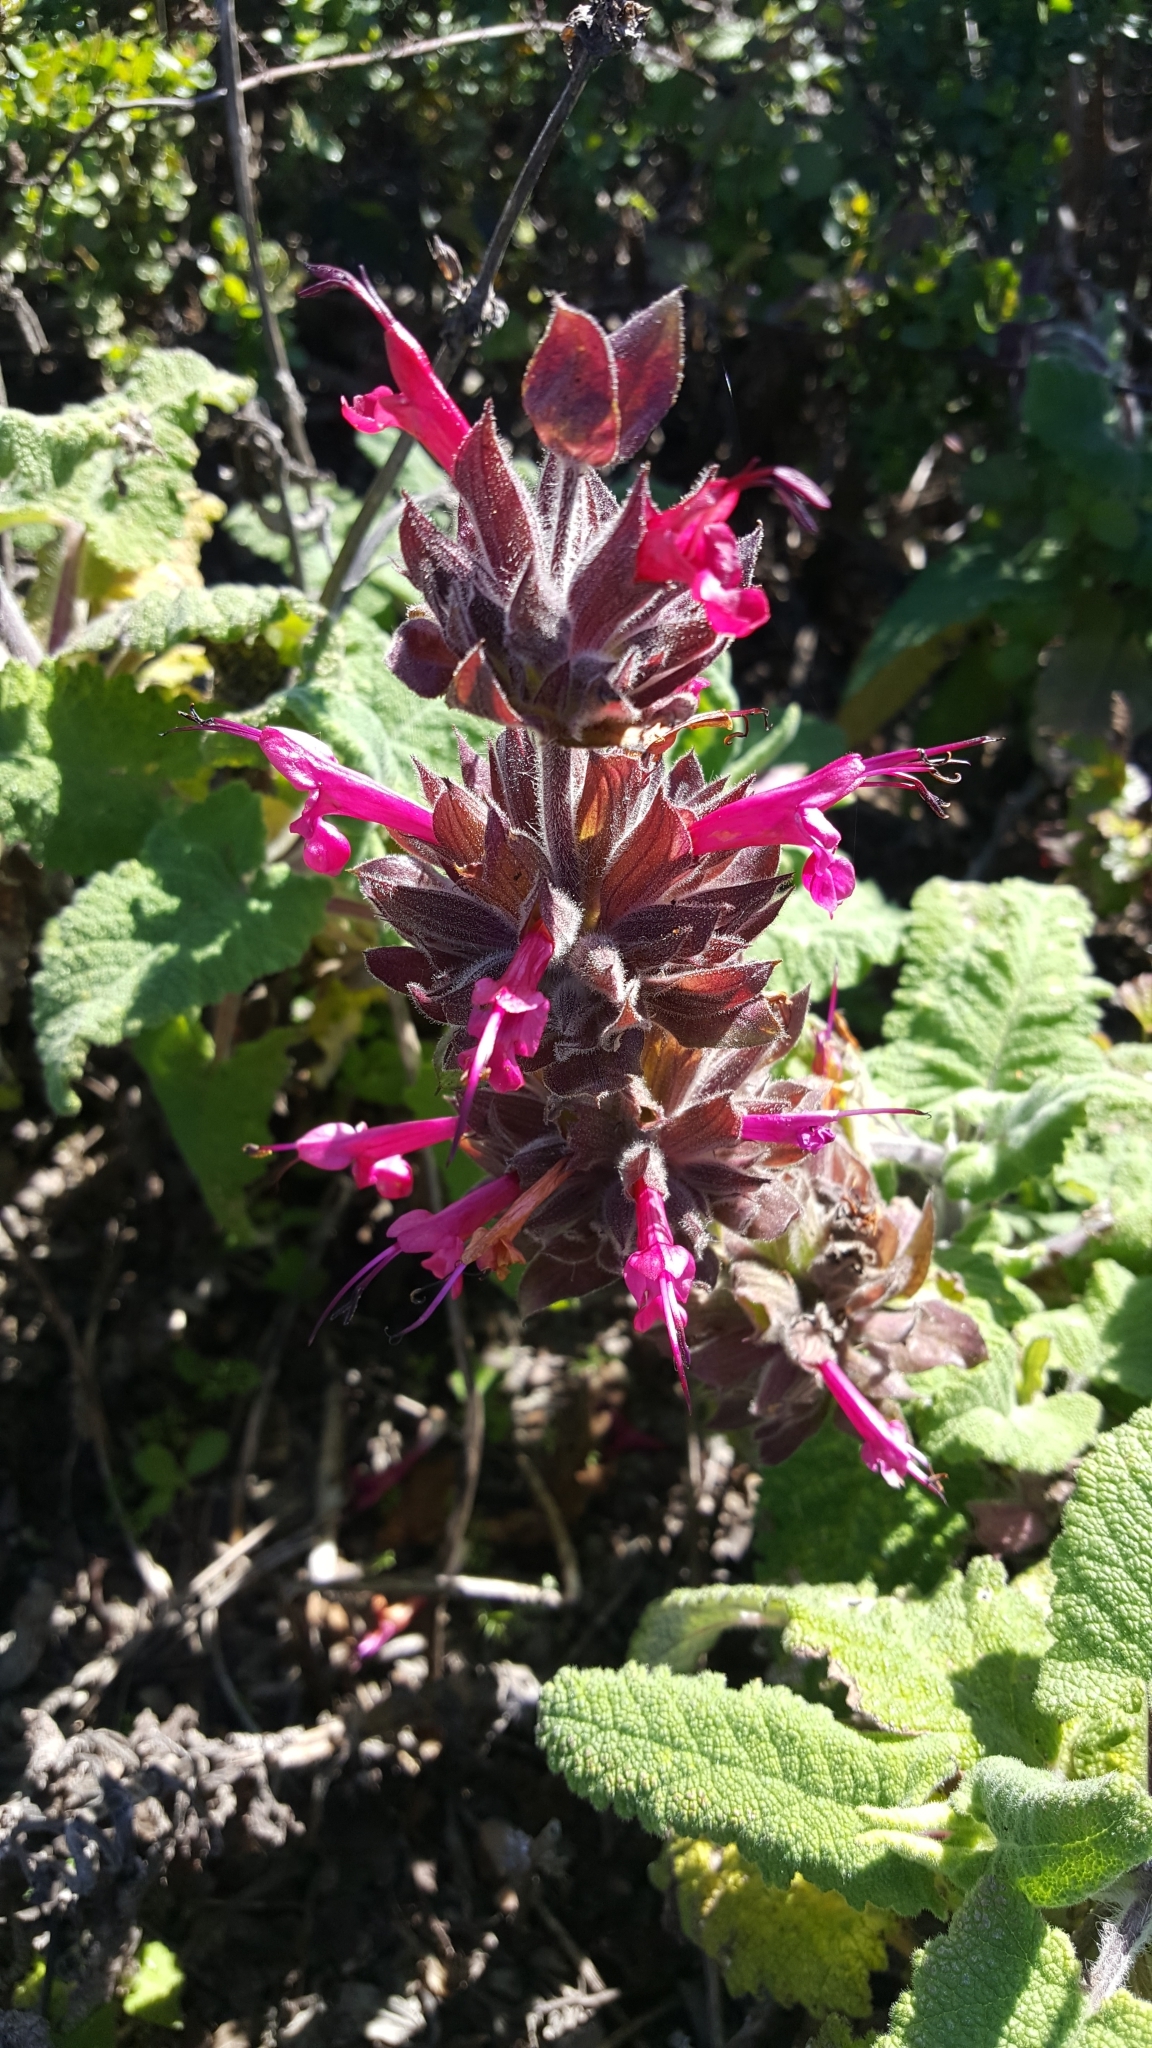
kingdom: Plantae
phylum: Tracheophyta
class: Magnoliopsida
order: Lamiales
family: Lamiaceae
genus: Salvia
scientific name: Salvia spathacea
